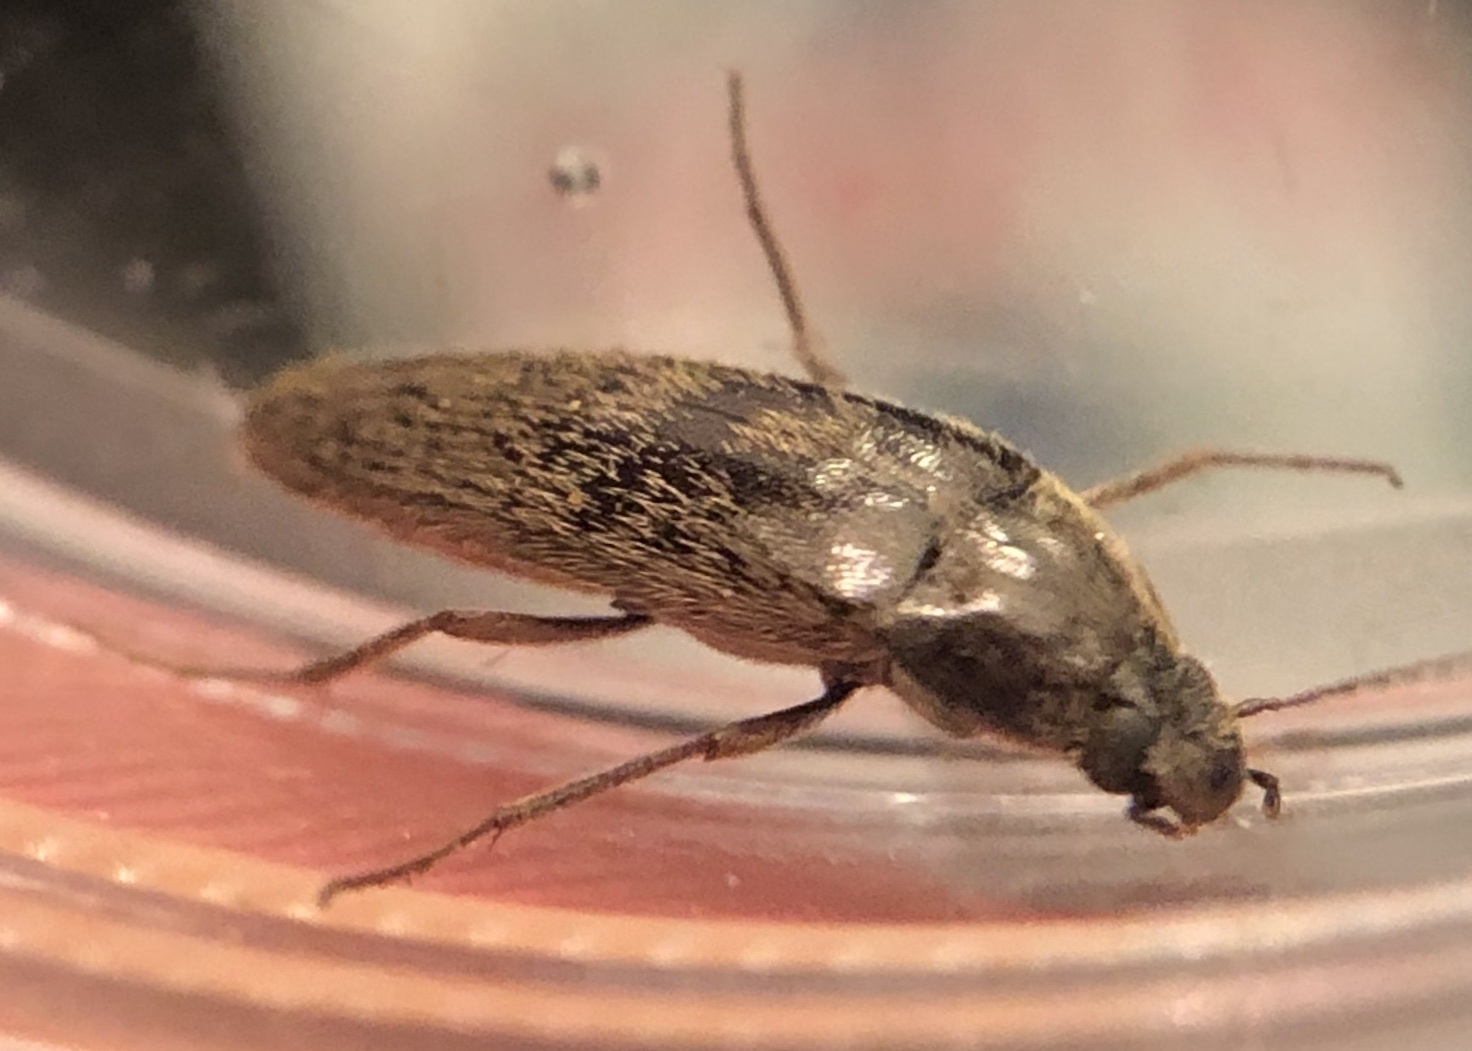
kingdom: Animalia
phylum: Arthropoda
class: Insecta
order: Coleoptera
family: Synchroidae
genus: Synchroa
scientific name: Synchroa punctata
